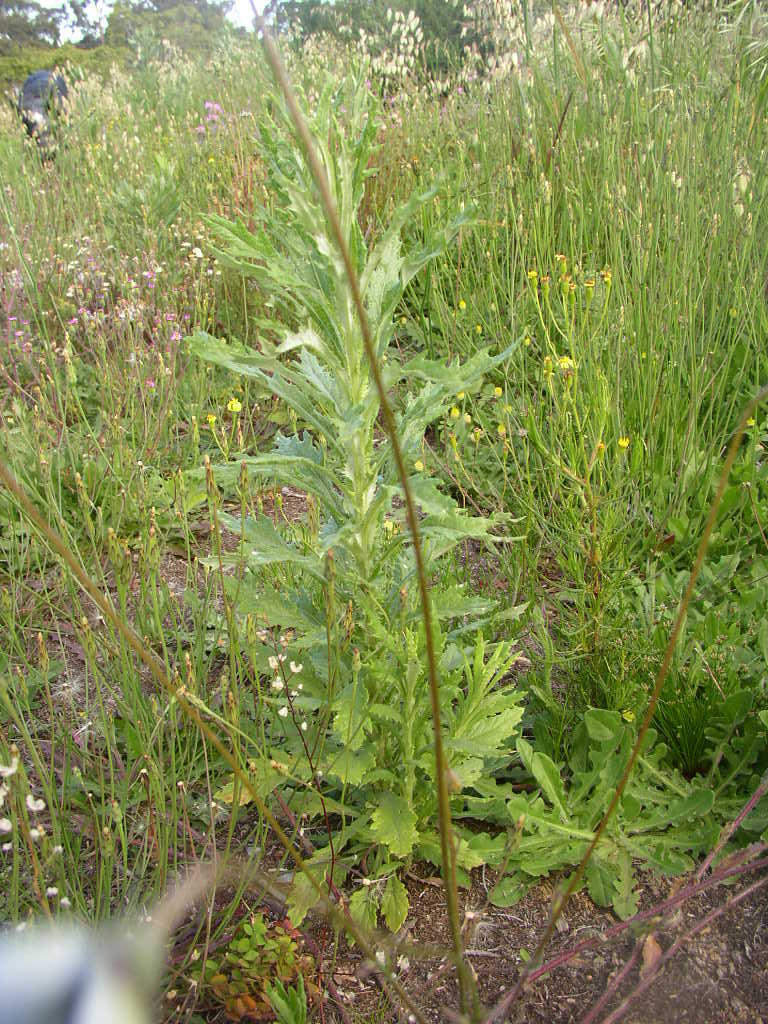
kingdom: Plantae
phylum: Tracheophyta
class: Magnoliopsida
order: Asterales
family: Asteraceae
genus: Senecio
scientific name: Senecio pterophorus
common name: Shoddy ragwort
